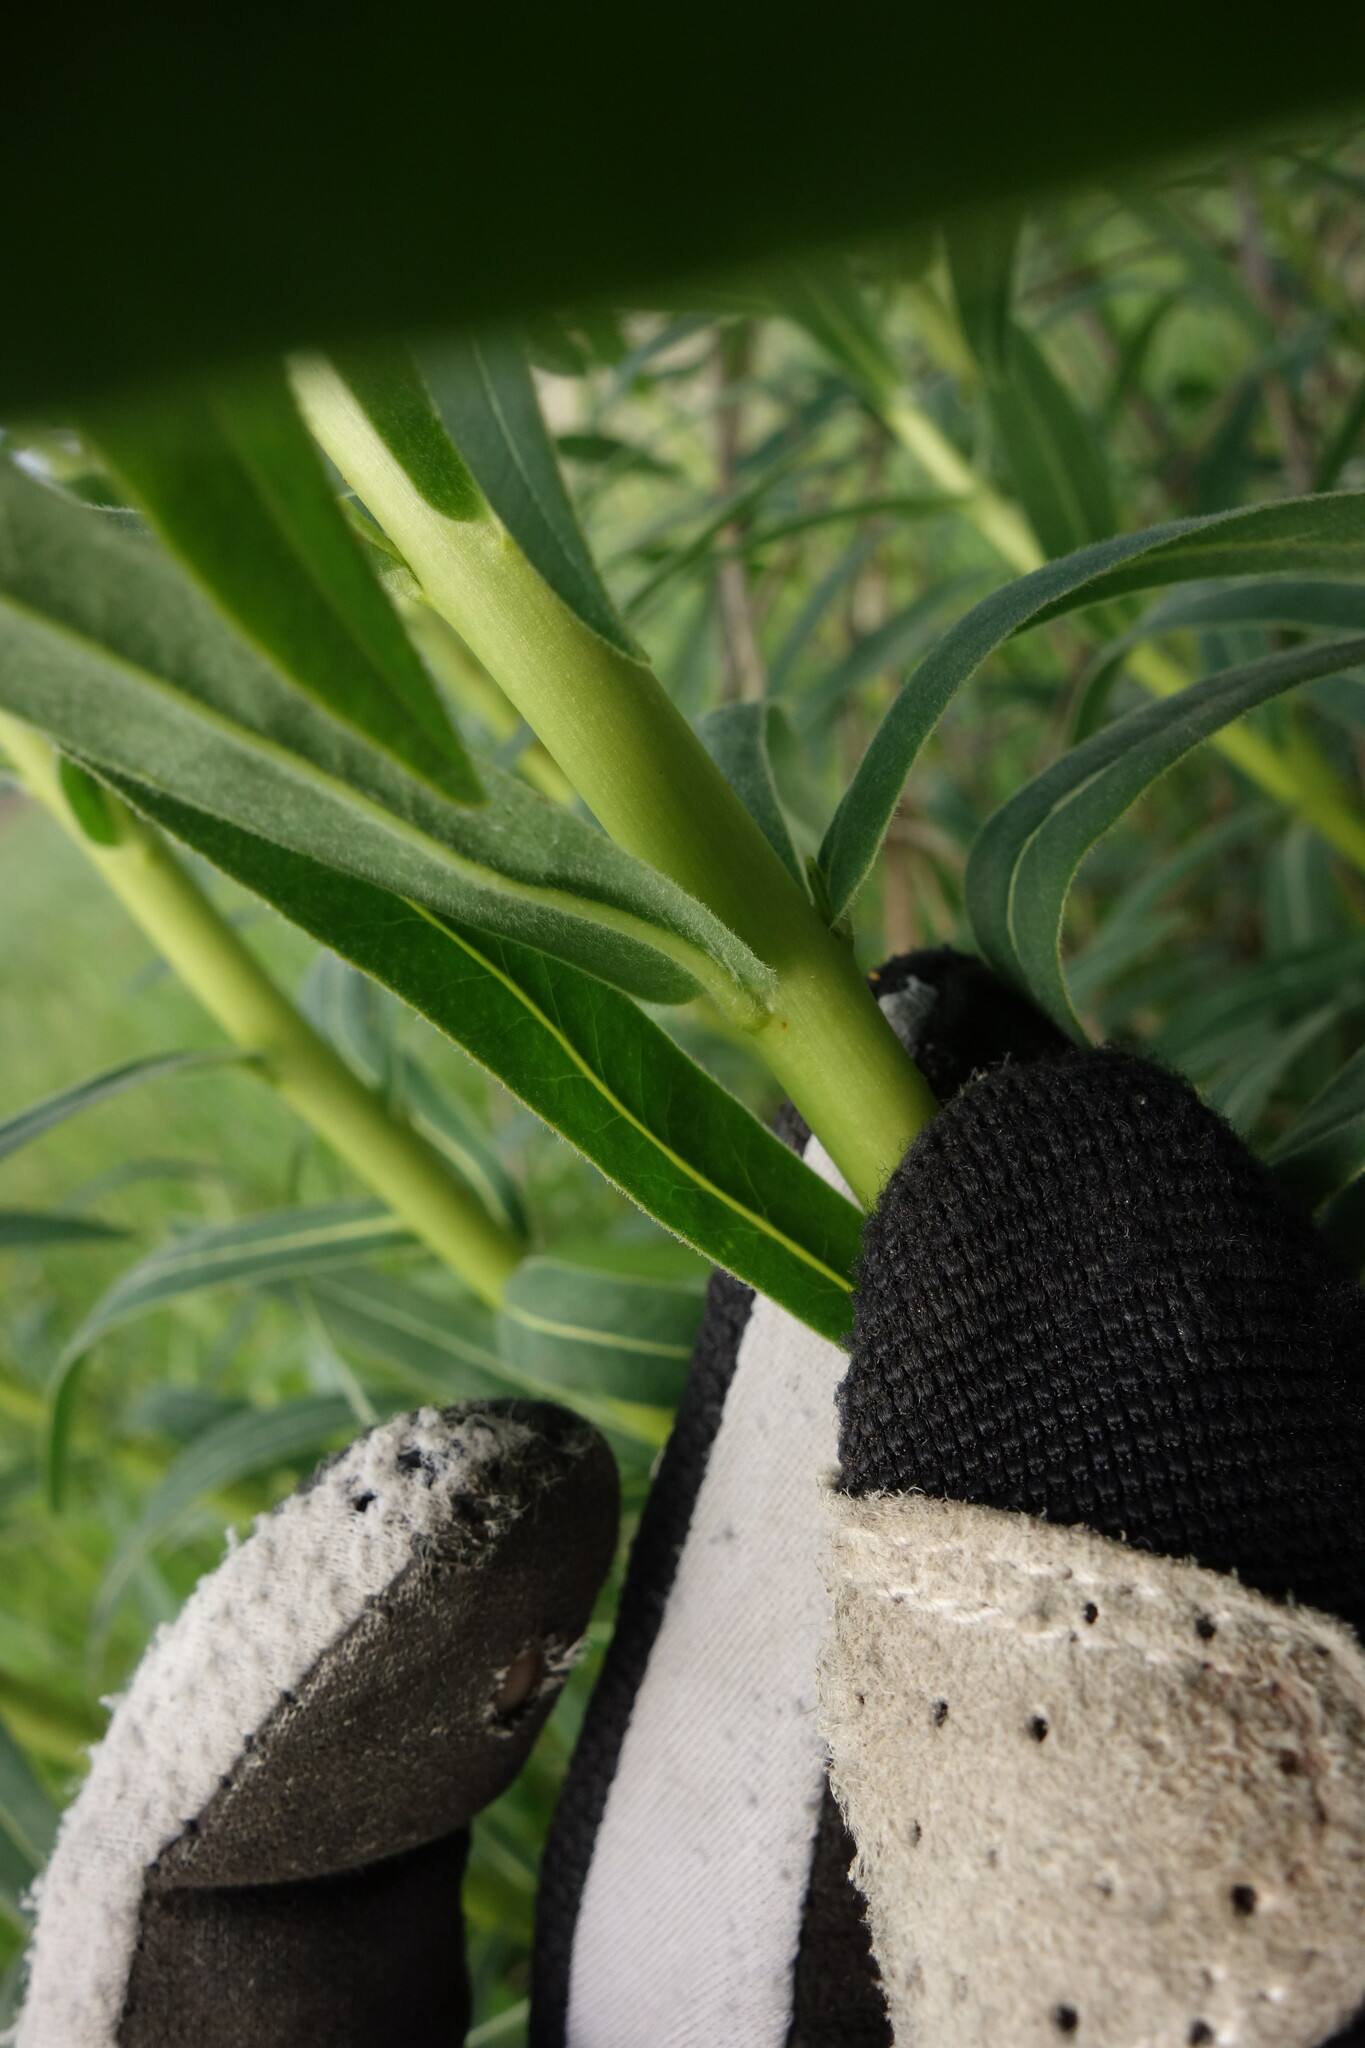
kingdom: Plantae
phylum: Tracheophyta
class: Magnoliopsida
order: Malpighiales
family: Euphorbiaceae
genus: Euphorbia
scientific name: Euphorbia semivillosa
